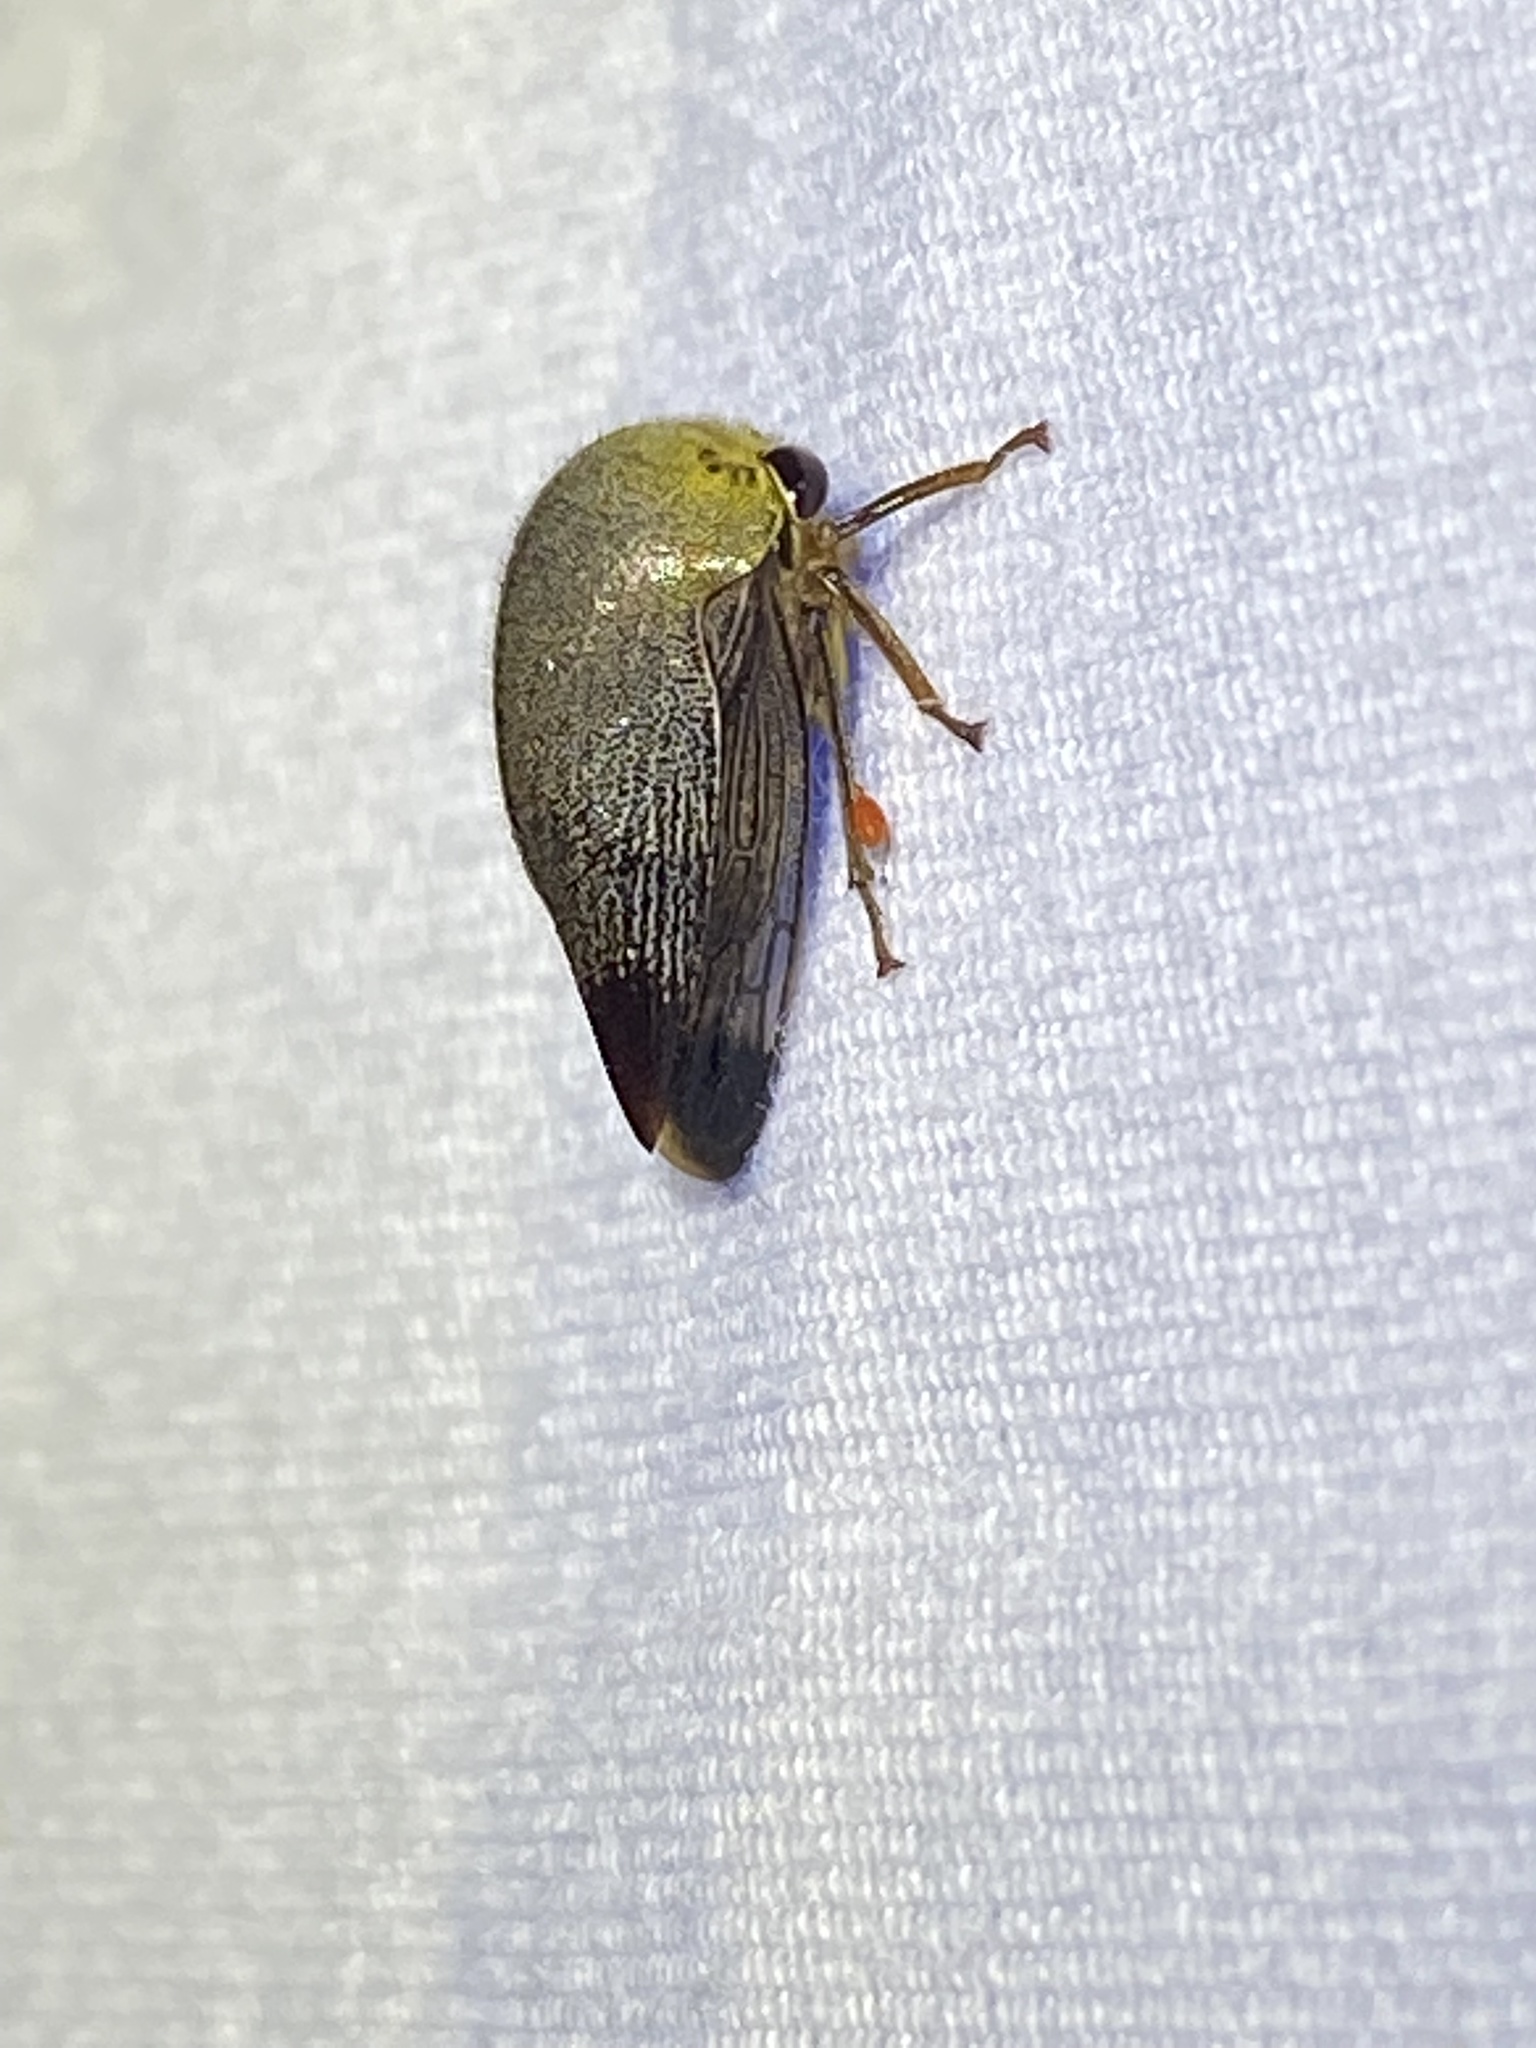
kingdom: Animalia
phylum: Arthropoda
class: Insecta
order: Hemiptera
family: Membracidae
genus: Carynota
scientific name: Carynota mera
